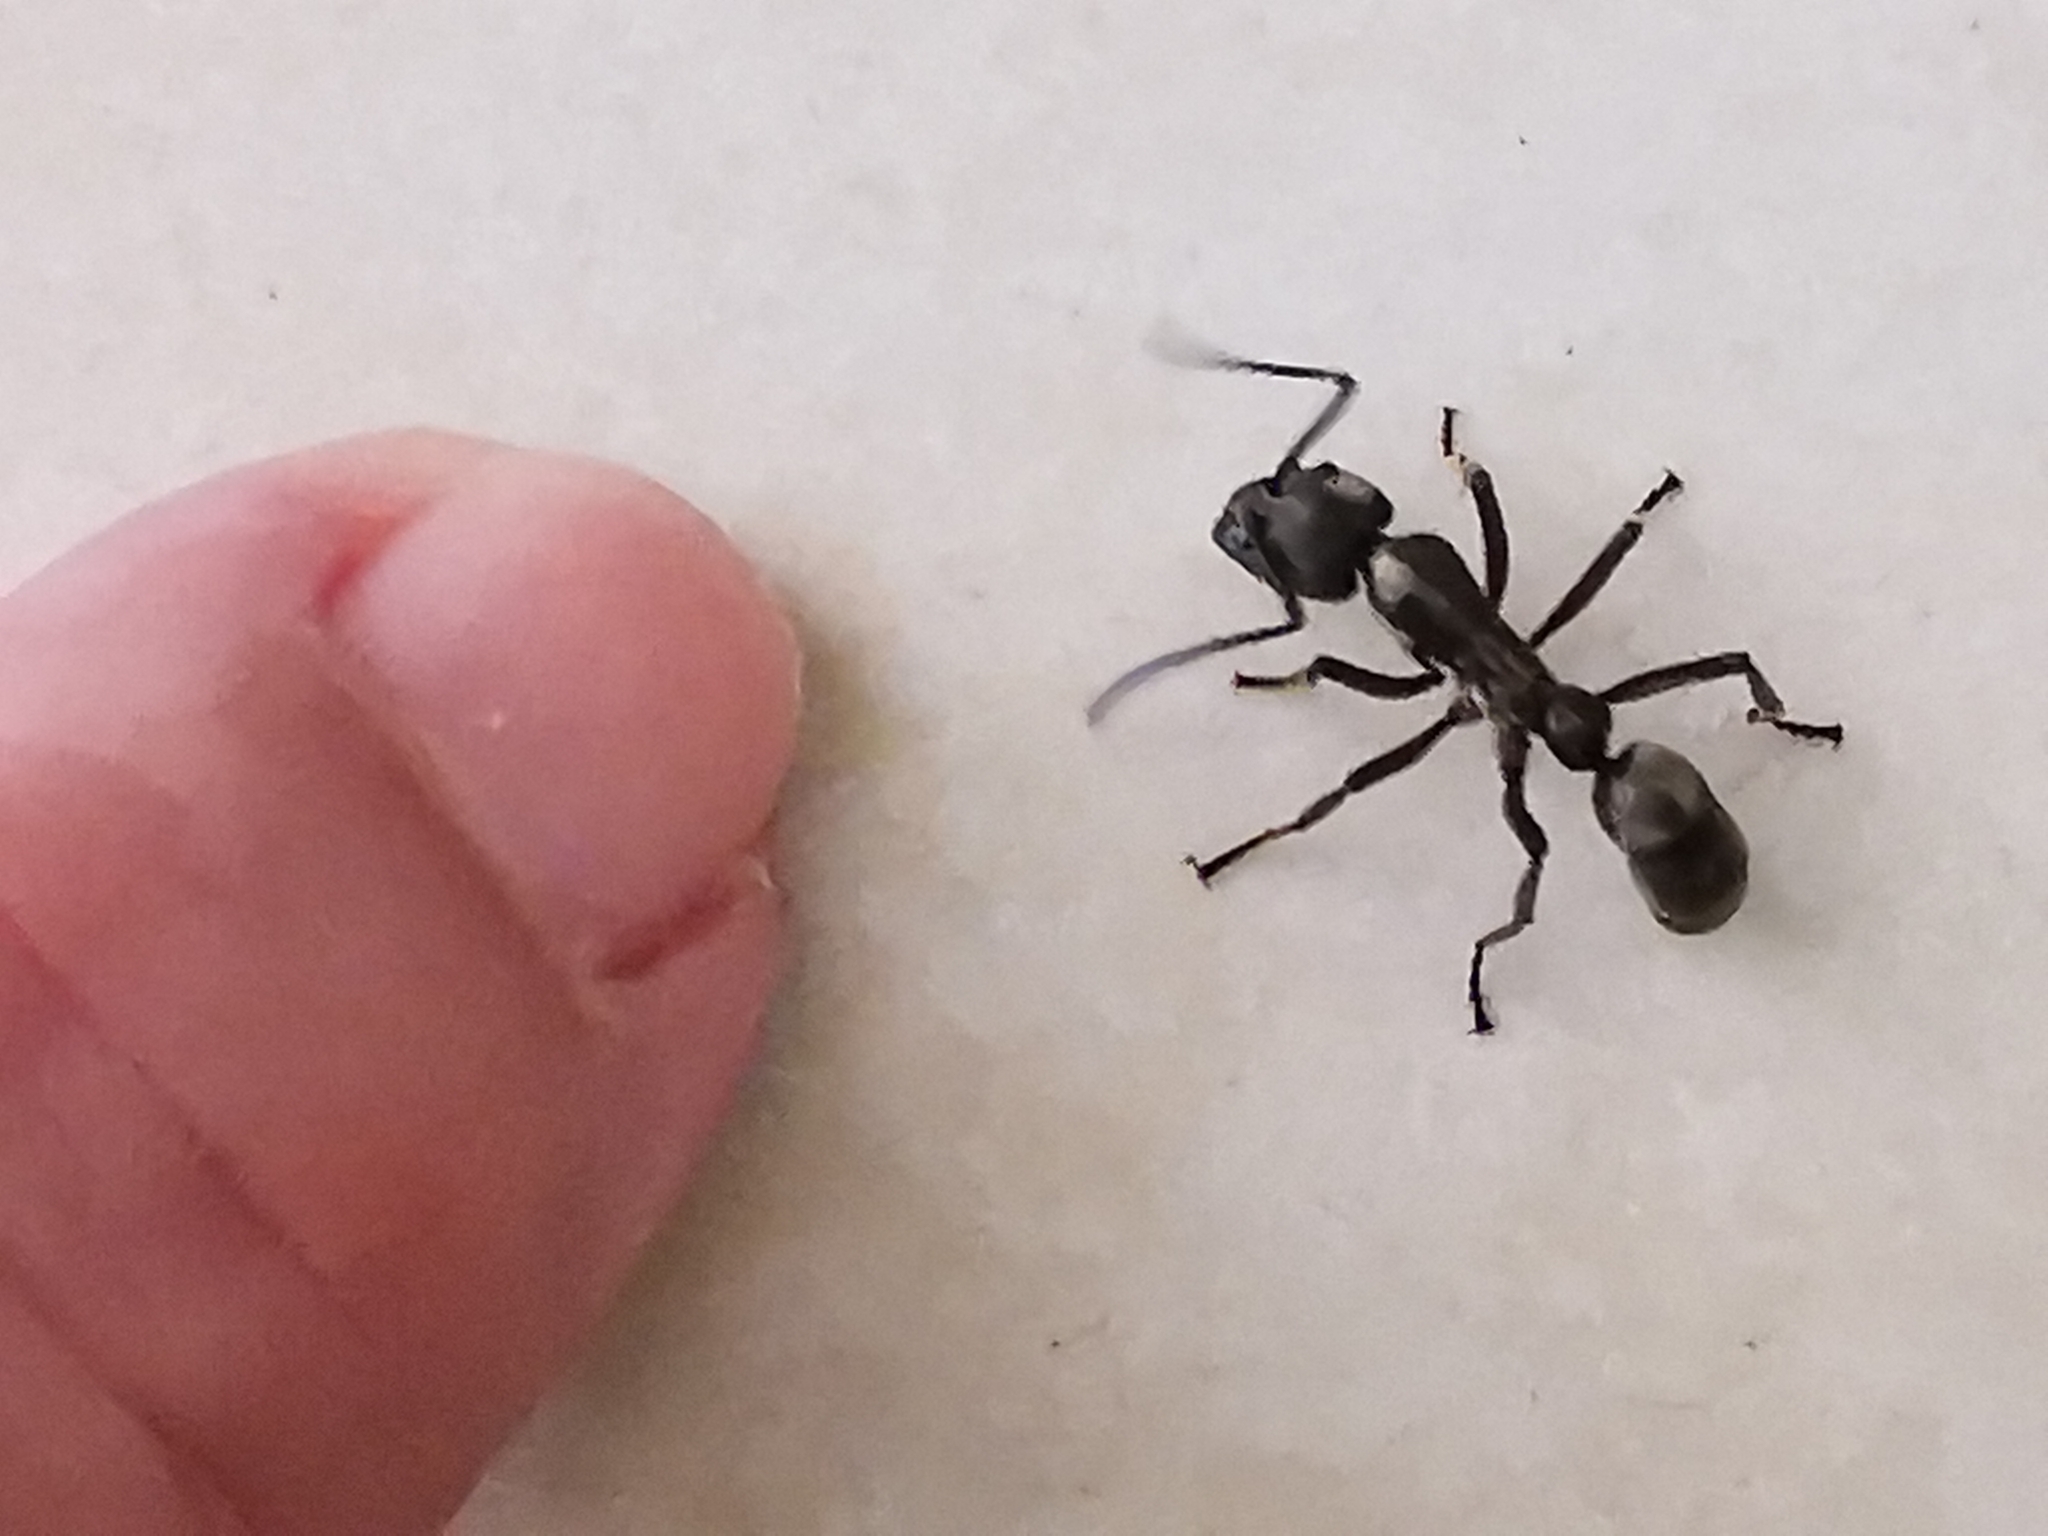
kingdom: Animalia
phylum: Arthropoda
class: Insecta
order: Hymenoptera
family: Formicidae
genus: Pachycondyla
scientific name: Pachycondyla villosa
